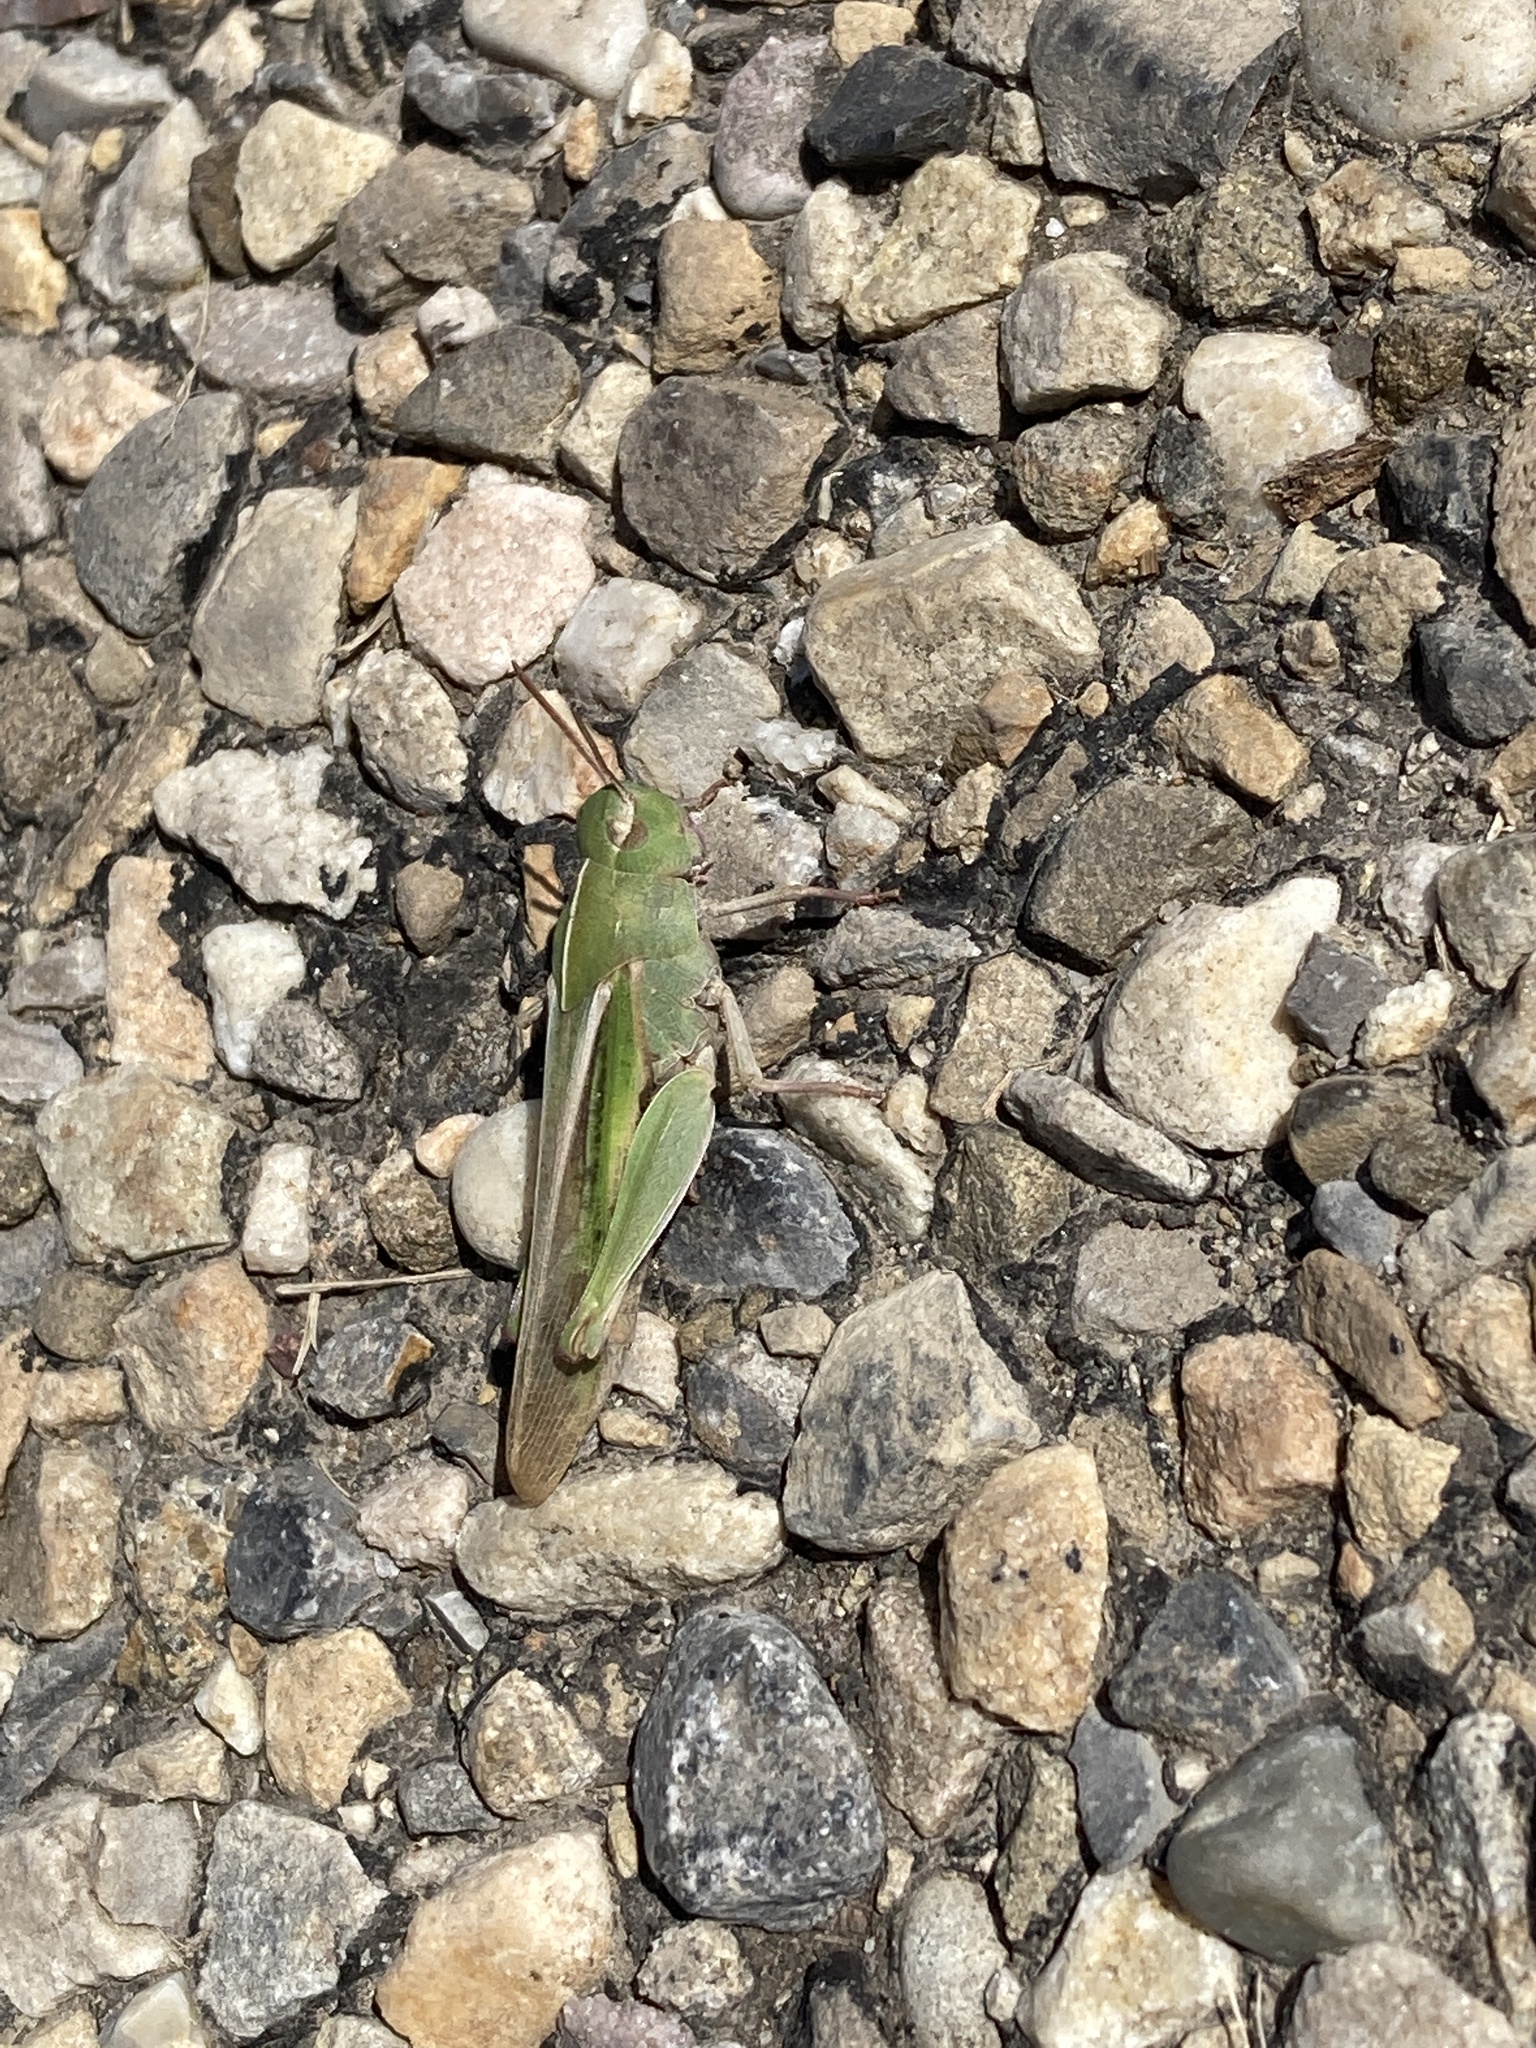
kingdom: Animalia
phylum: Arthropoda
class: Insecta
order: Orthoptera
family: Acrididae
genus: Chortophaga
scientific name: Chortophaga viridifasciata
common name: Green-striped grasshopper
